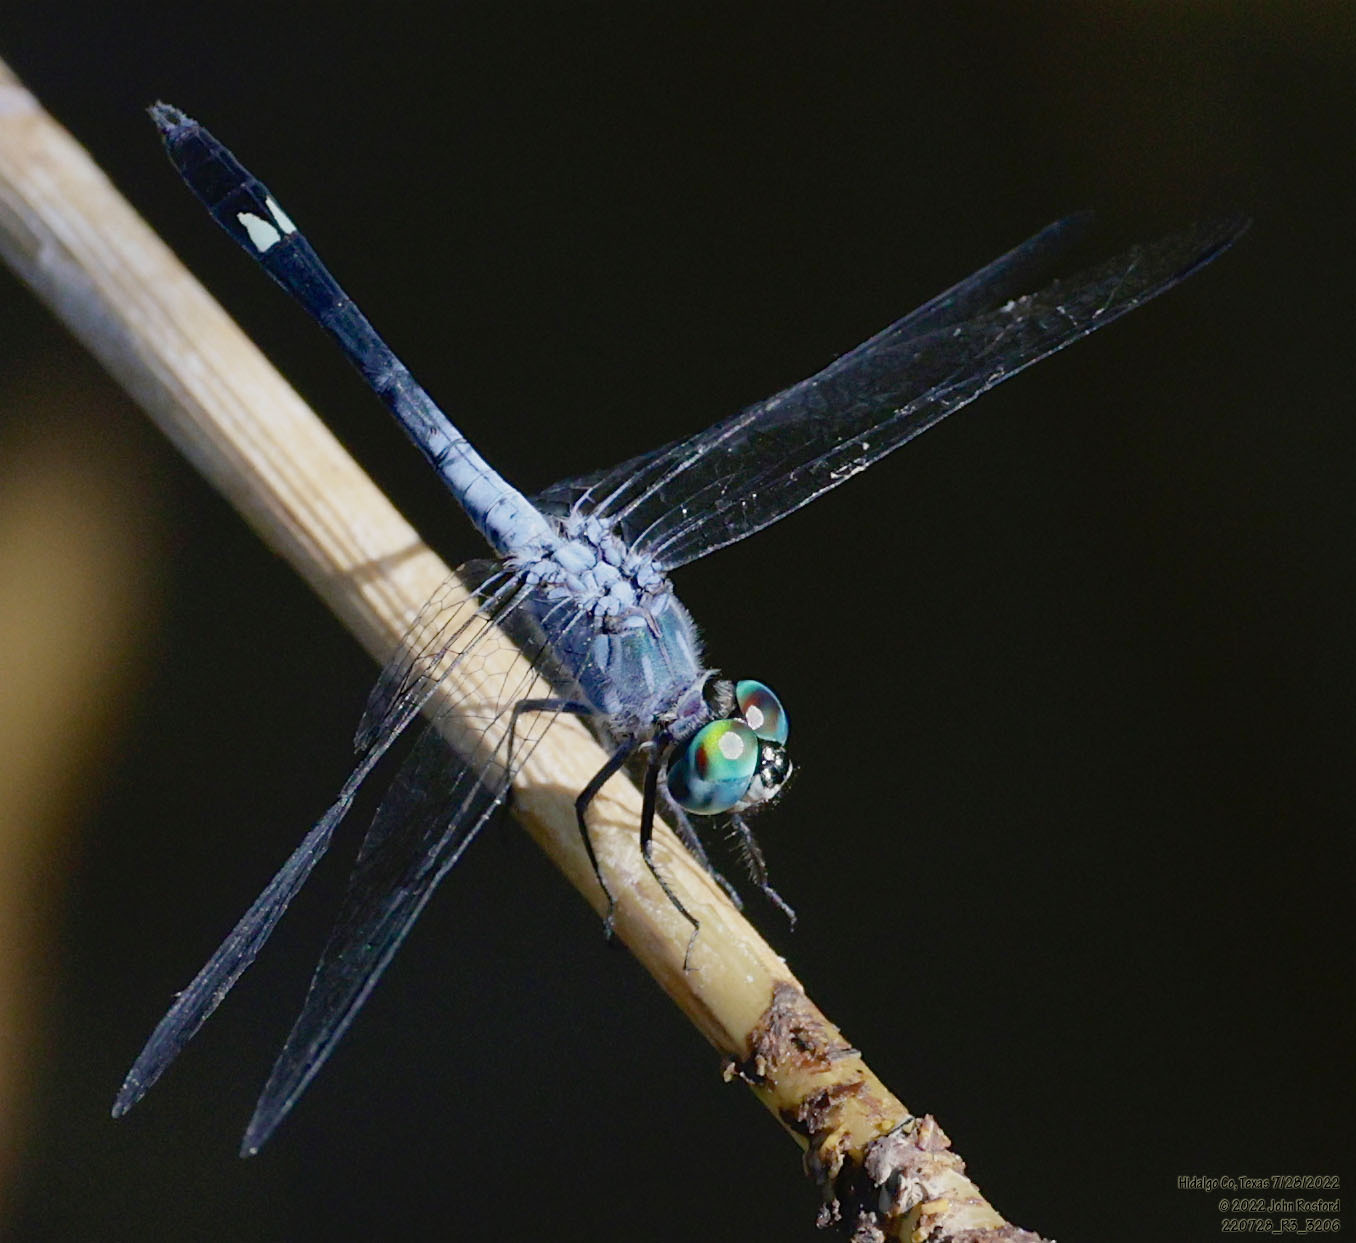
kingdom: Animalia
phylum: Arthropoda
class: Insecta
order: Odonata
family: Libellulidae
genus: Micrathyria
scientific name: Micrathyria aequalis
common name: Spot-tailed dasher
